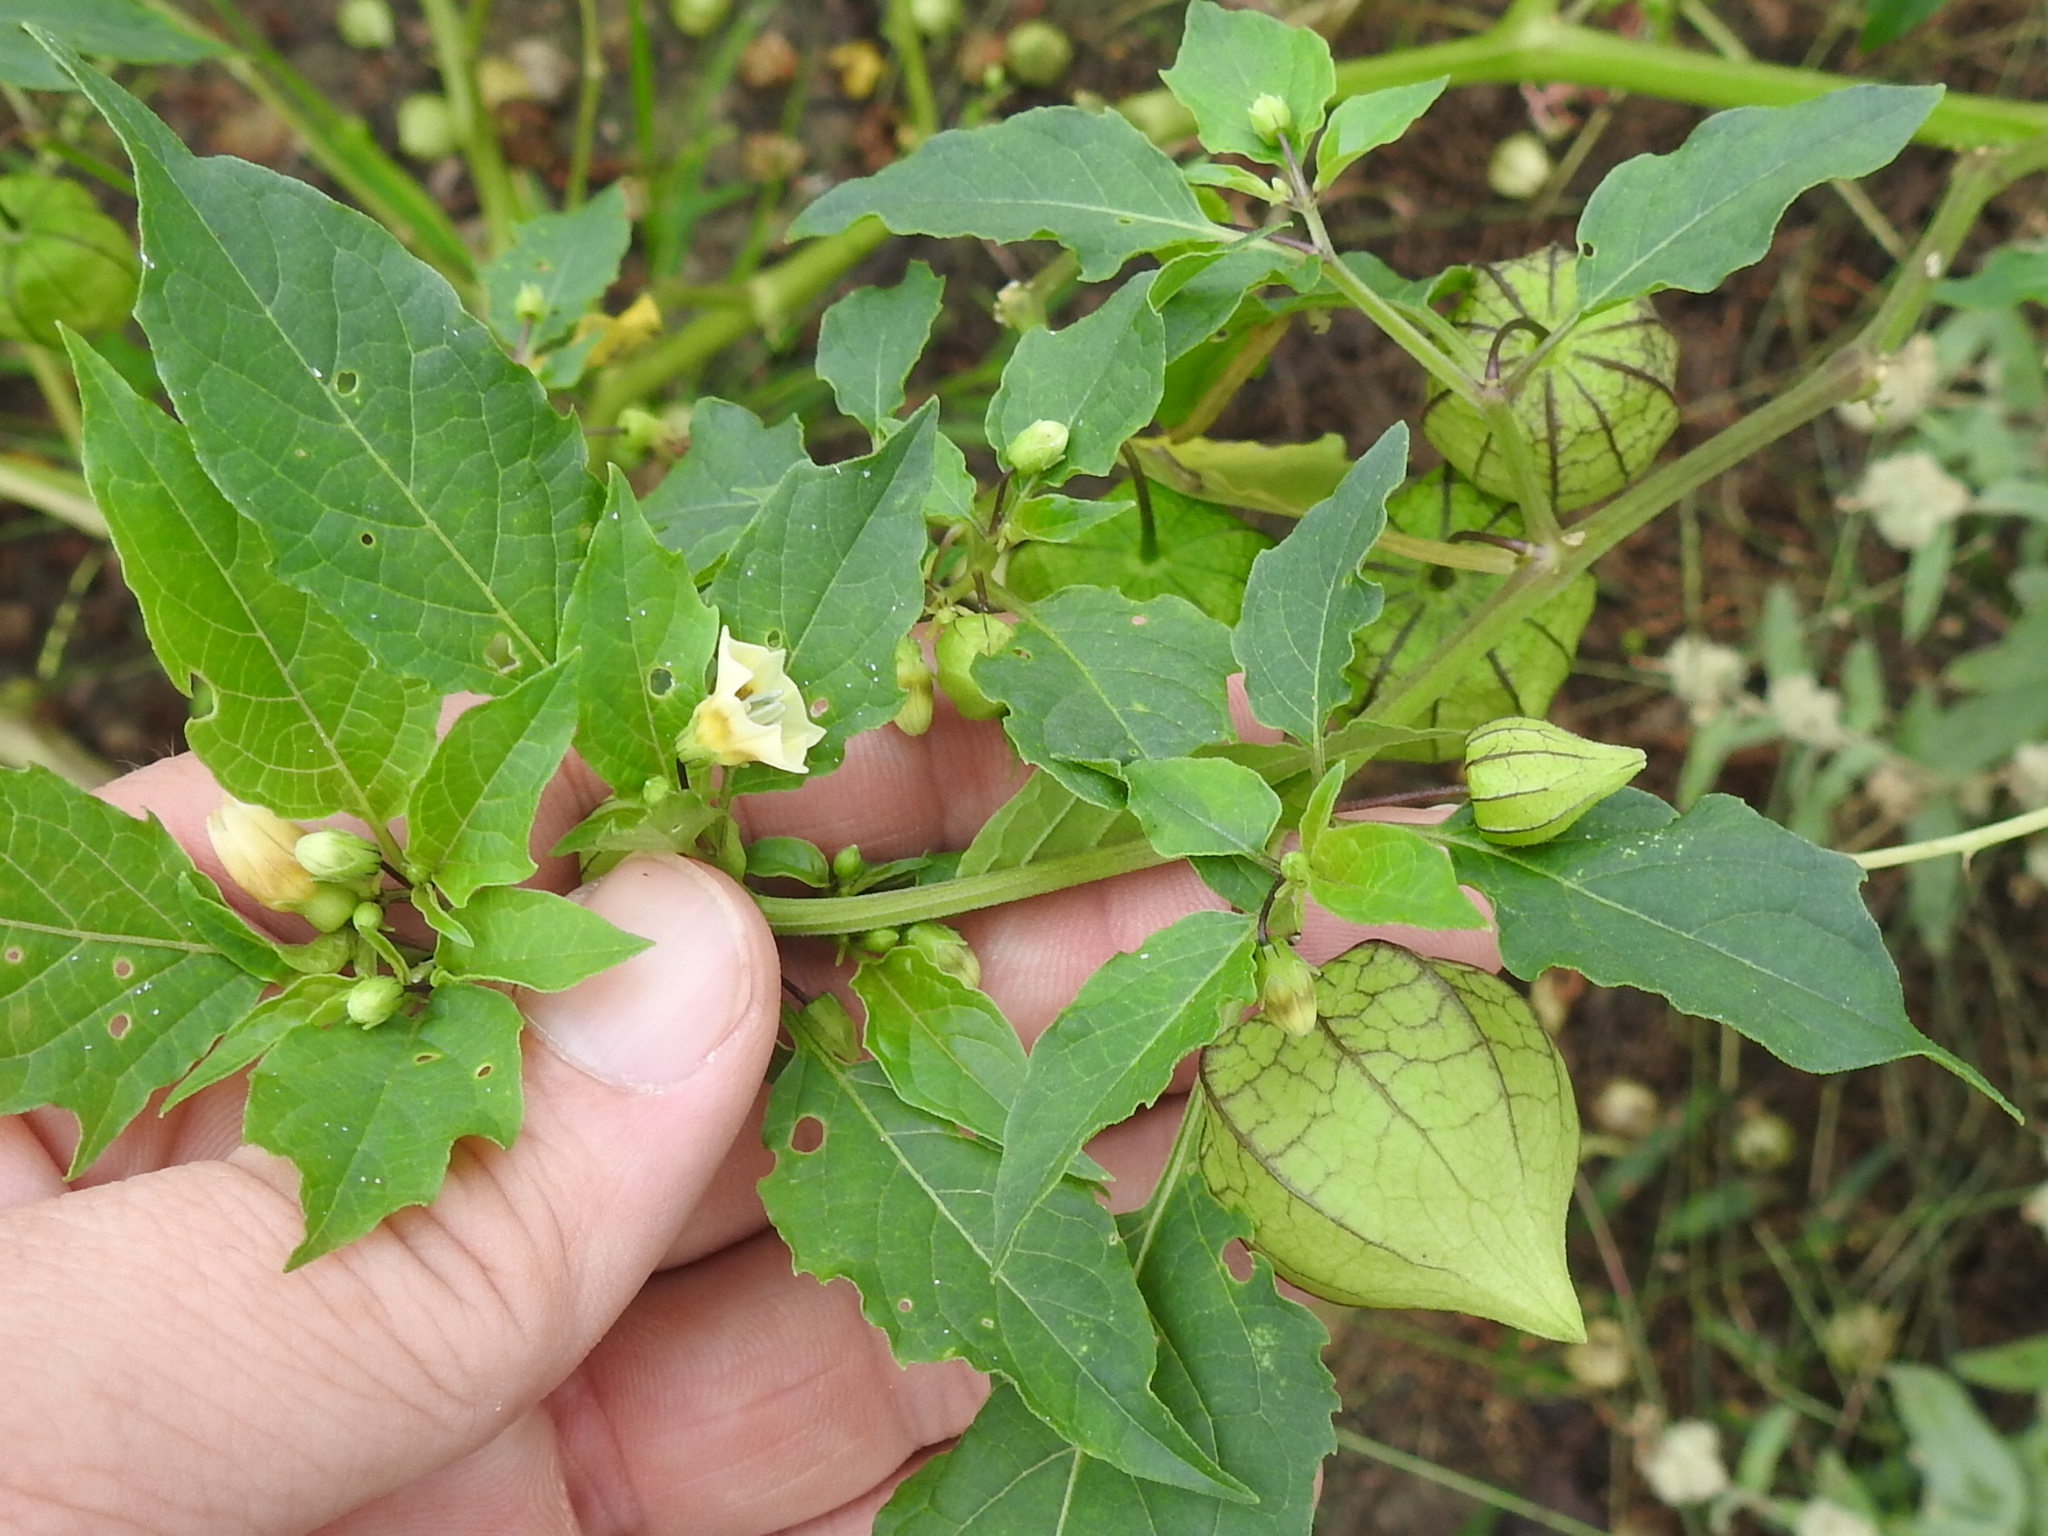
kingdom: Plantae
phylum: Tracheophyta
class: Magnoliopsida
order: Solanales
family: Solanaceae
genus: Physalis
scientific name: Physalis angulata
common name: Angular winter-cherry
